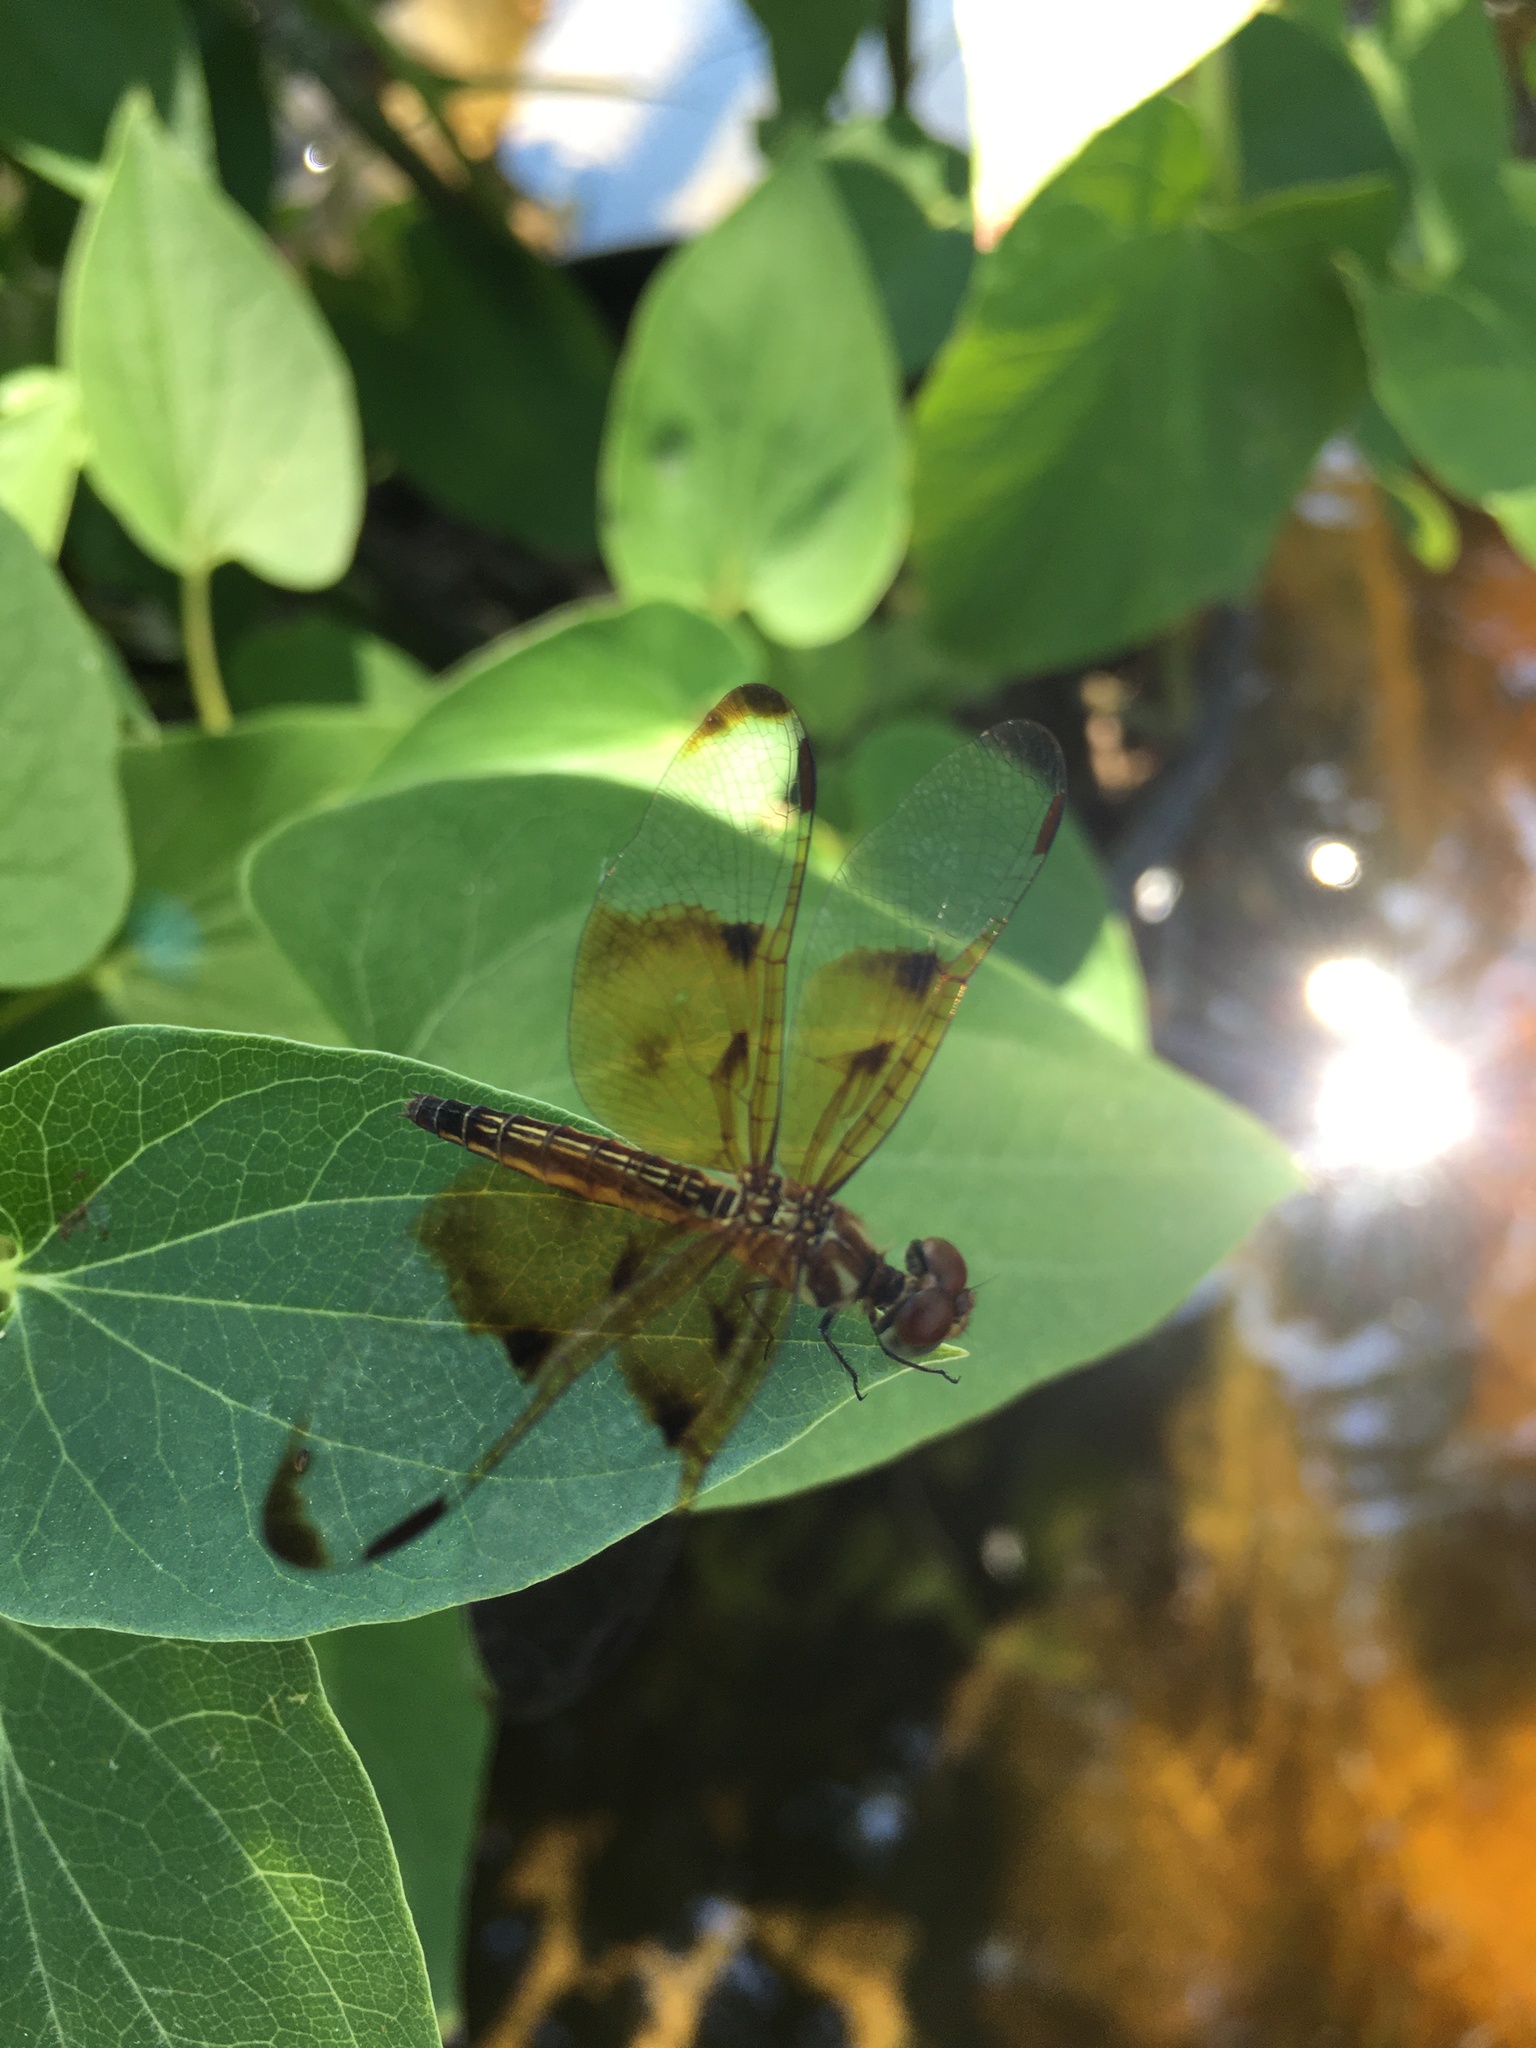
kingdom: Animalia
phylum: Arthropoda
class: Insecta
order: Odonata
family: Libellulidae
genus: Perithemis
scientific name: Perithemis domitia
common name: Slough amberwing
